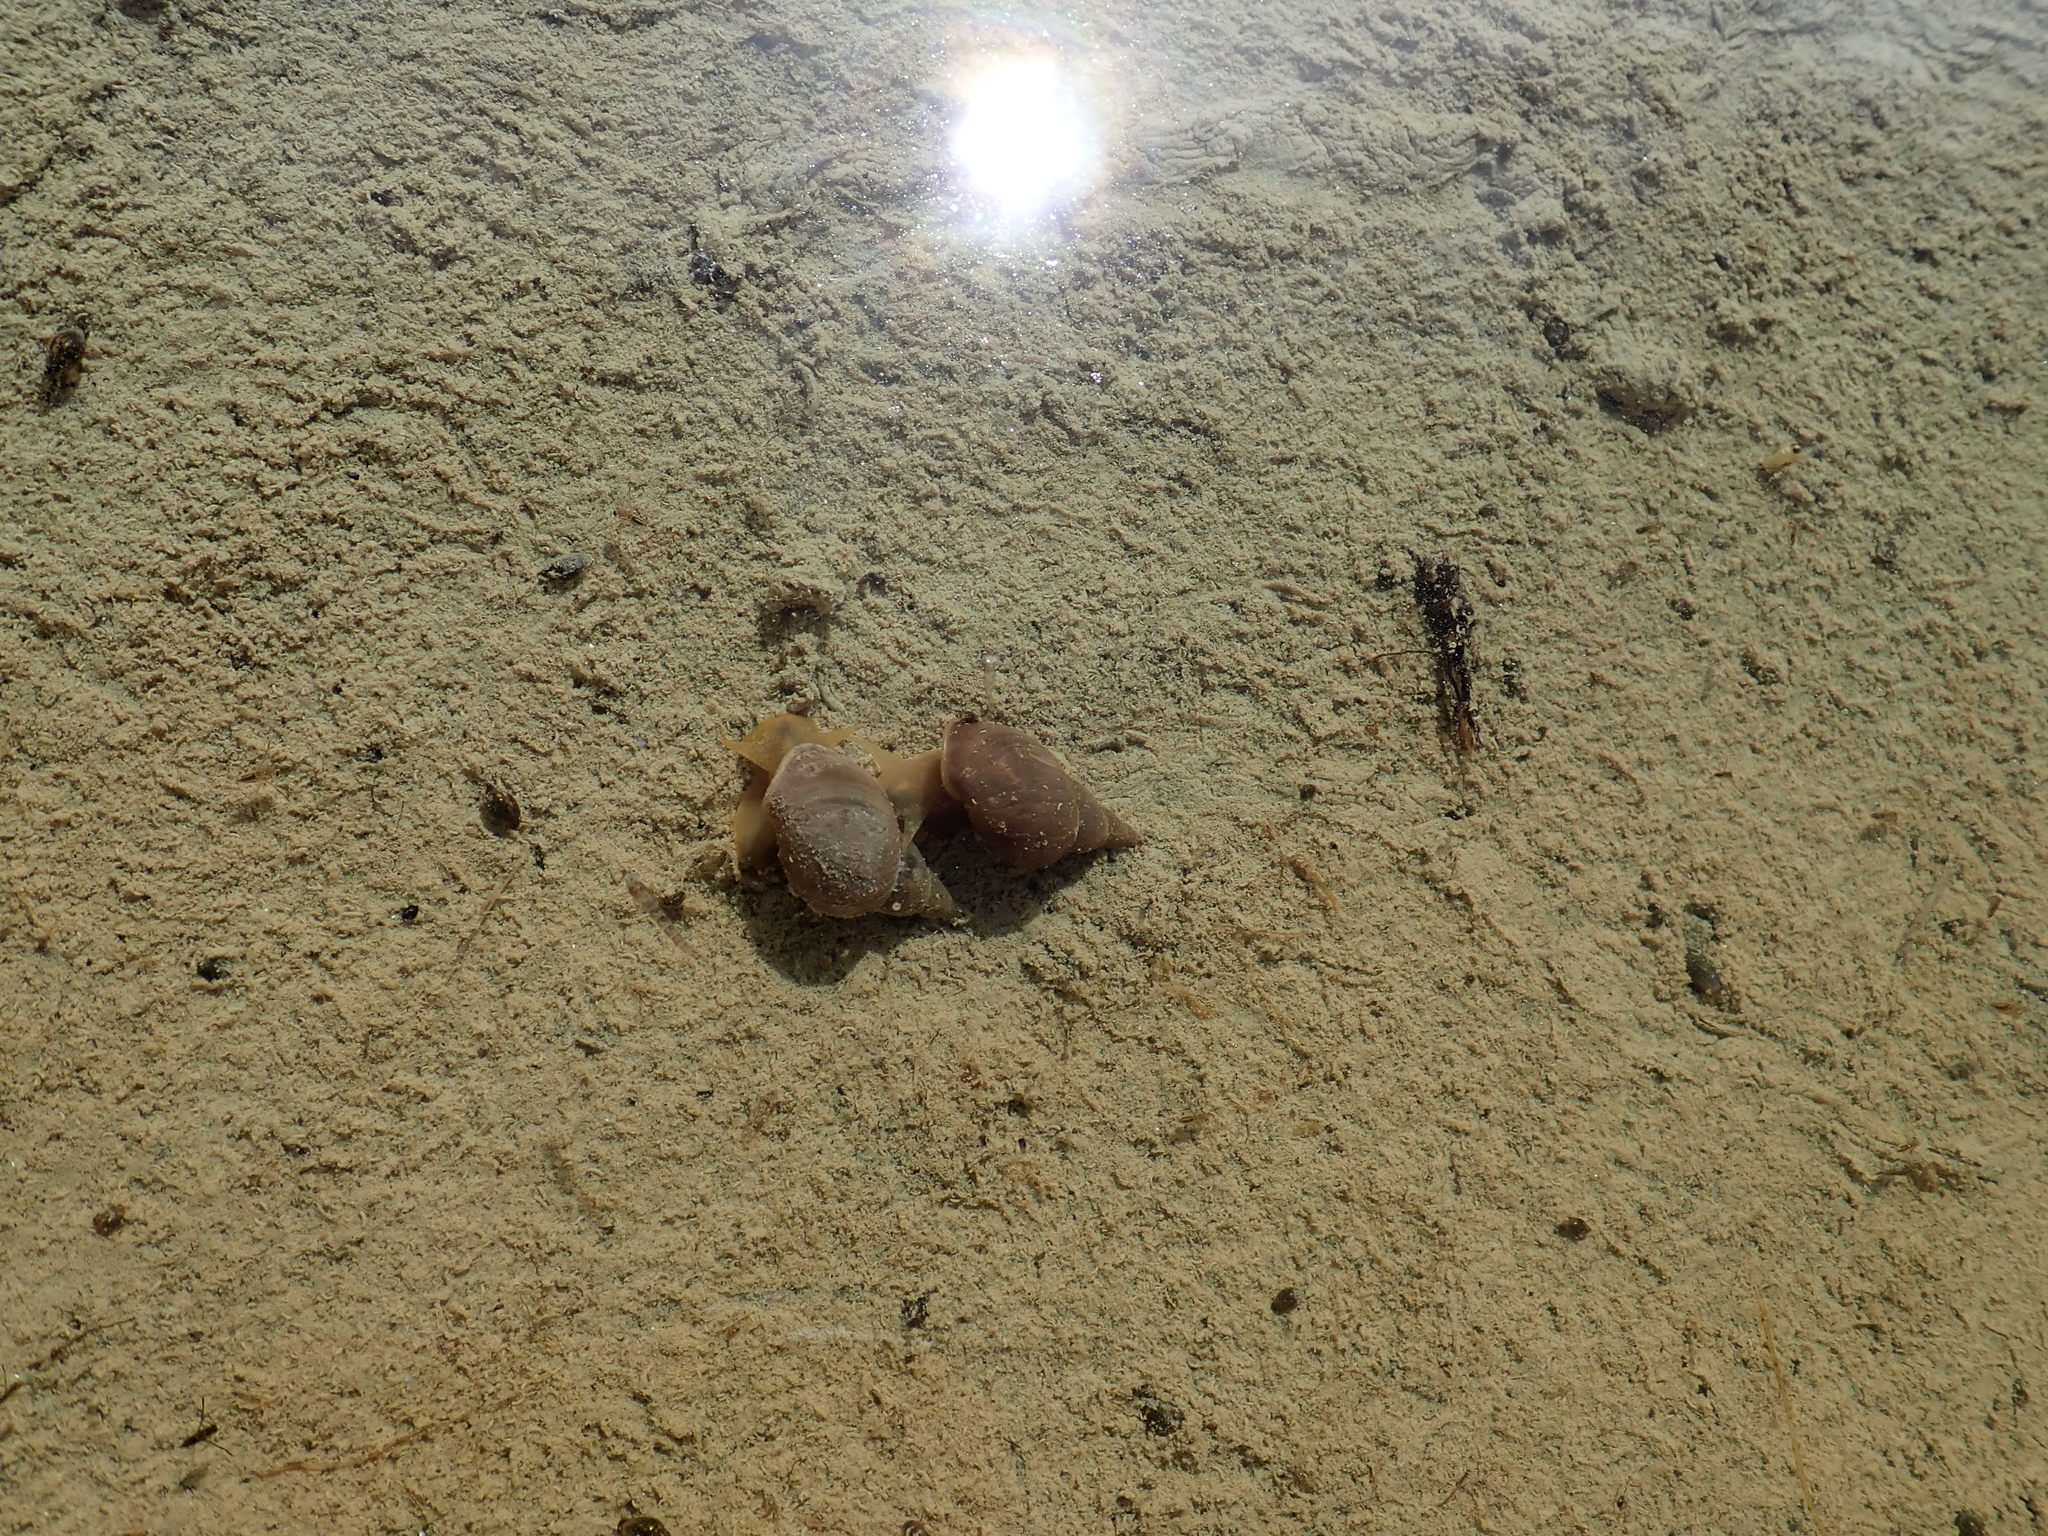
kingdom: Animalia
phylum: Mollusca
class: Gastropoda
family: Lymnaeidae
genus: Lymnaea
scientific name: Lymnaea stagnalis
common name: Great pond snail
